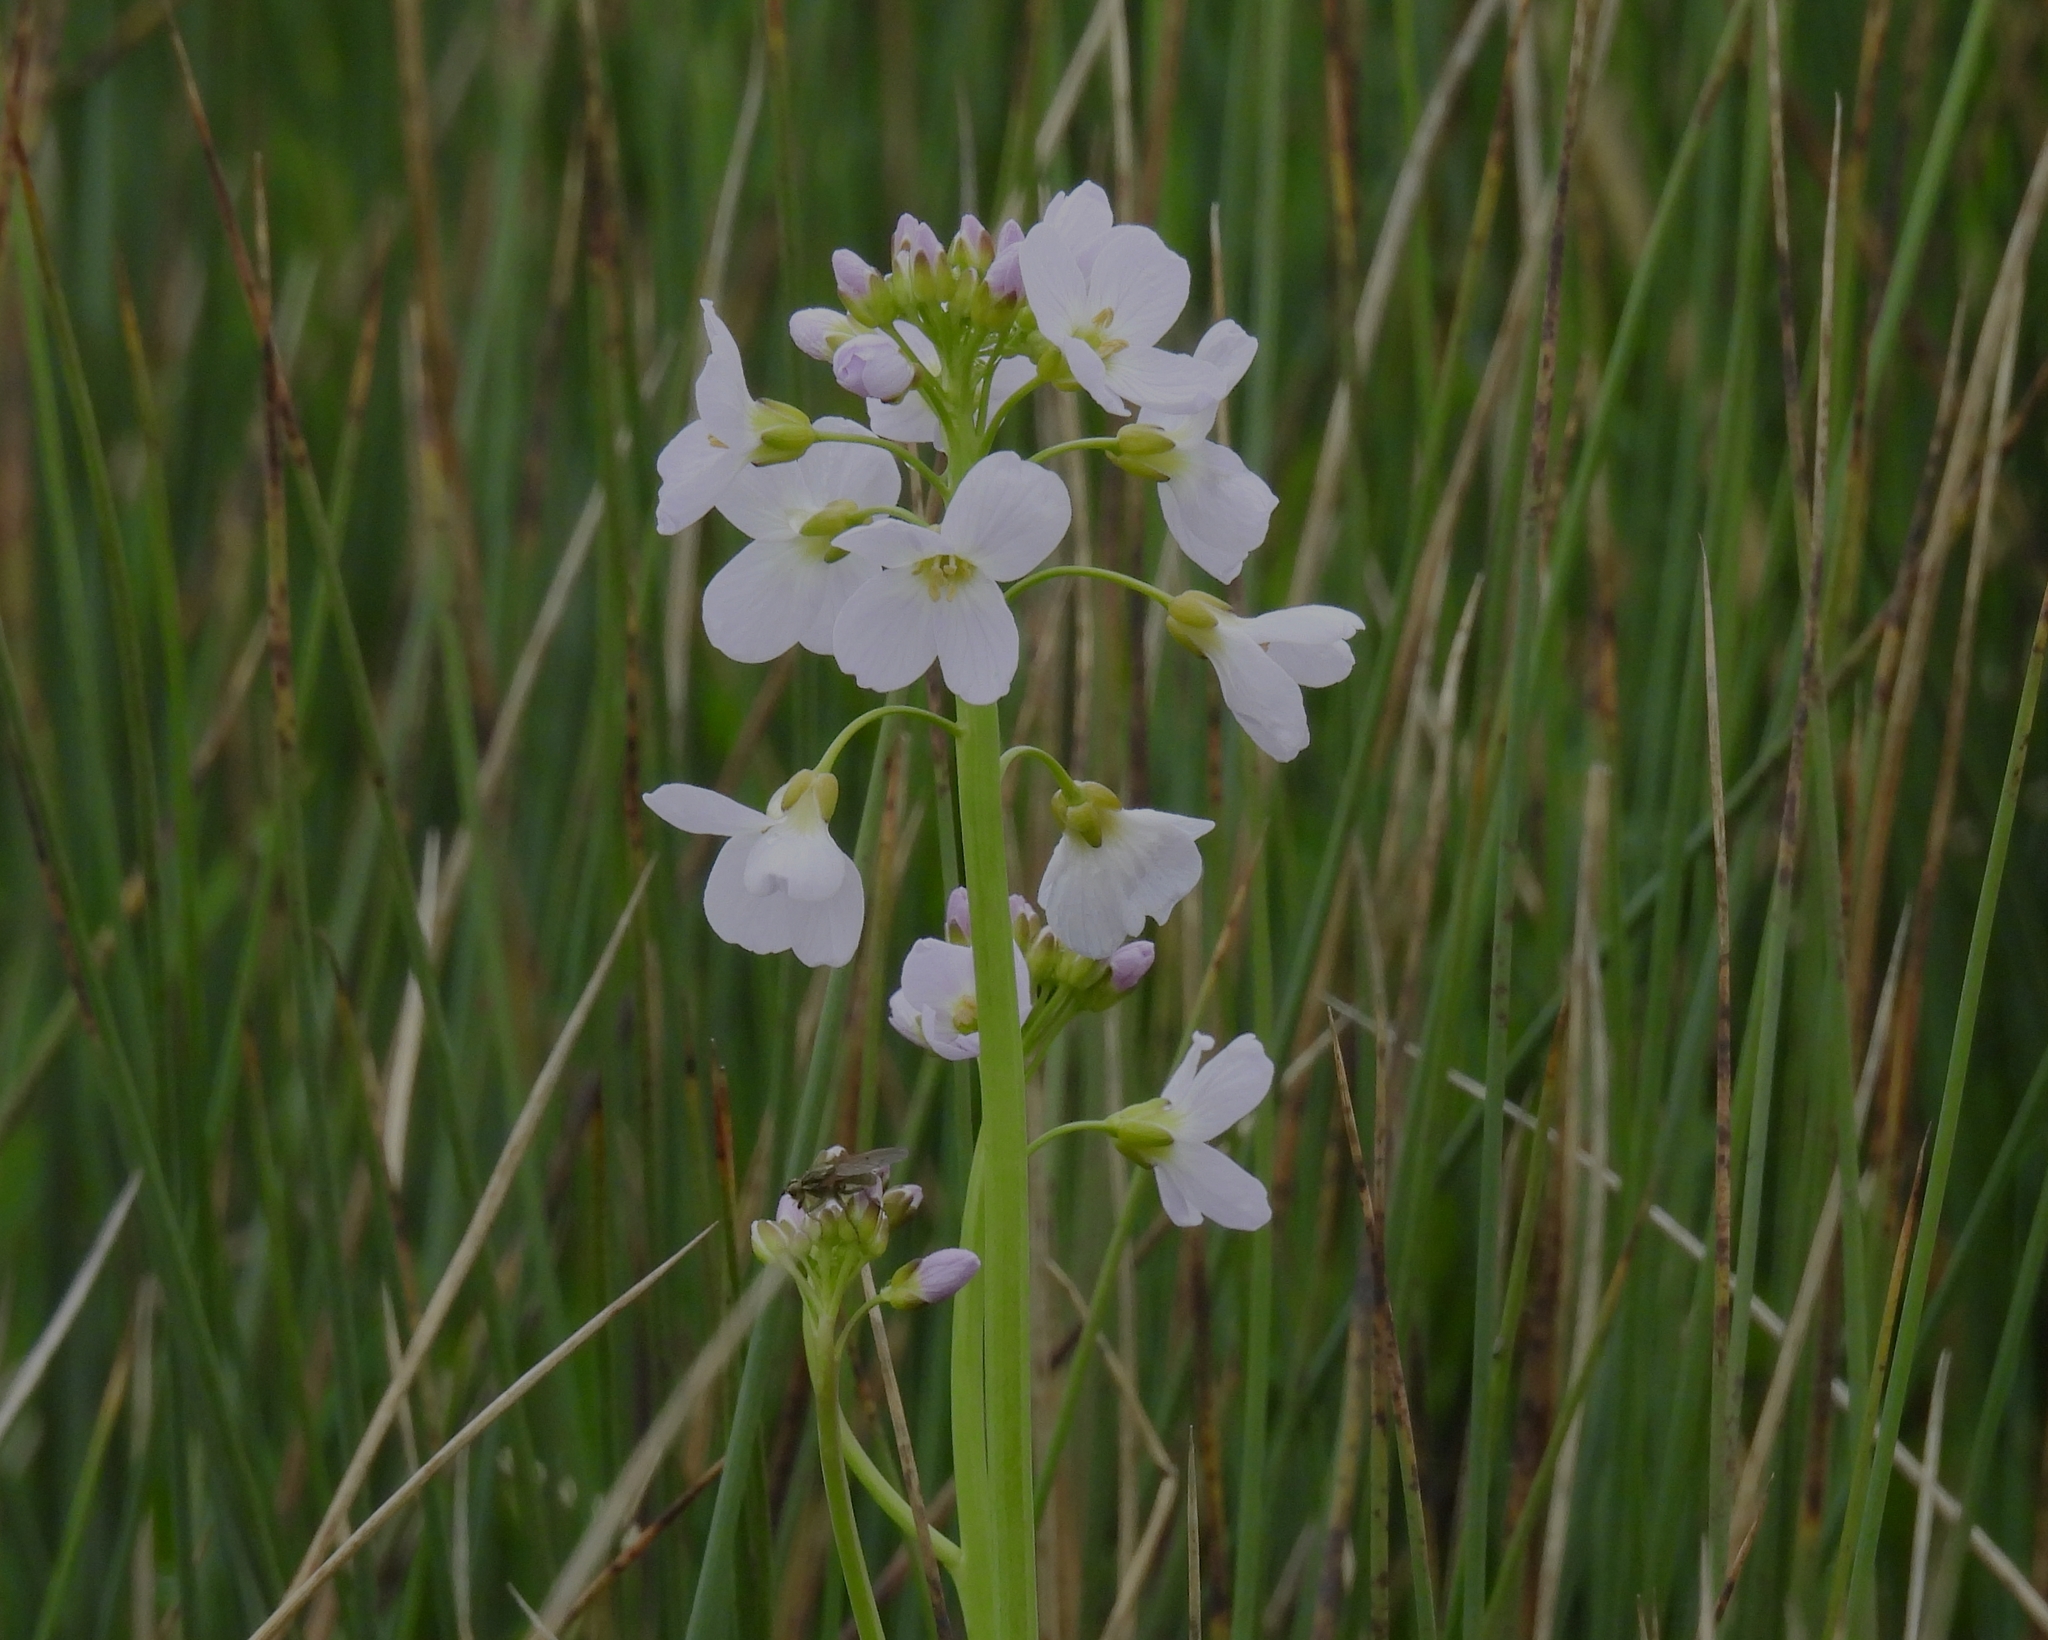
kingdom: Plantae
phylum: Tracheophyta
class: Magnoliopsida
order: Brassicales
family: Brassicaceae
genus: Cardamine
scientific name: Cardamine pratensis
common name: Cuckoo flower
